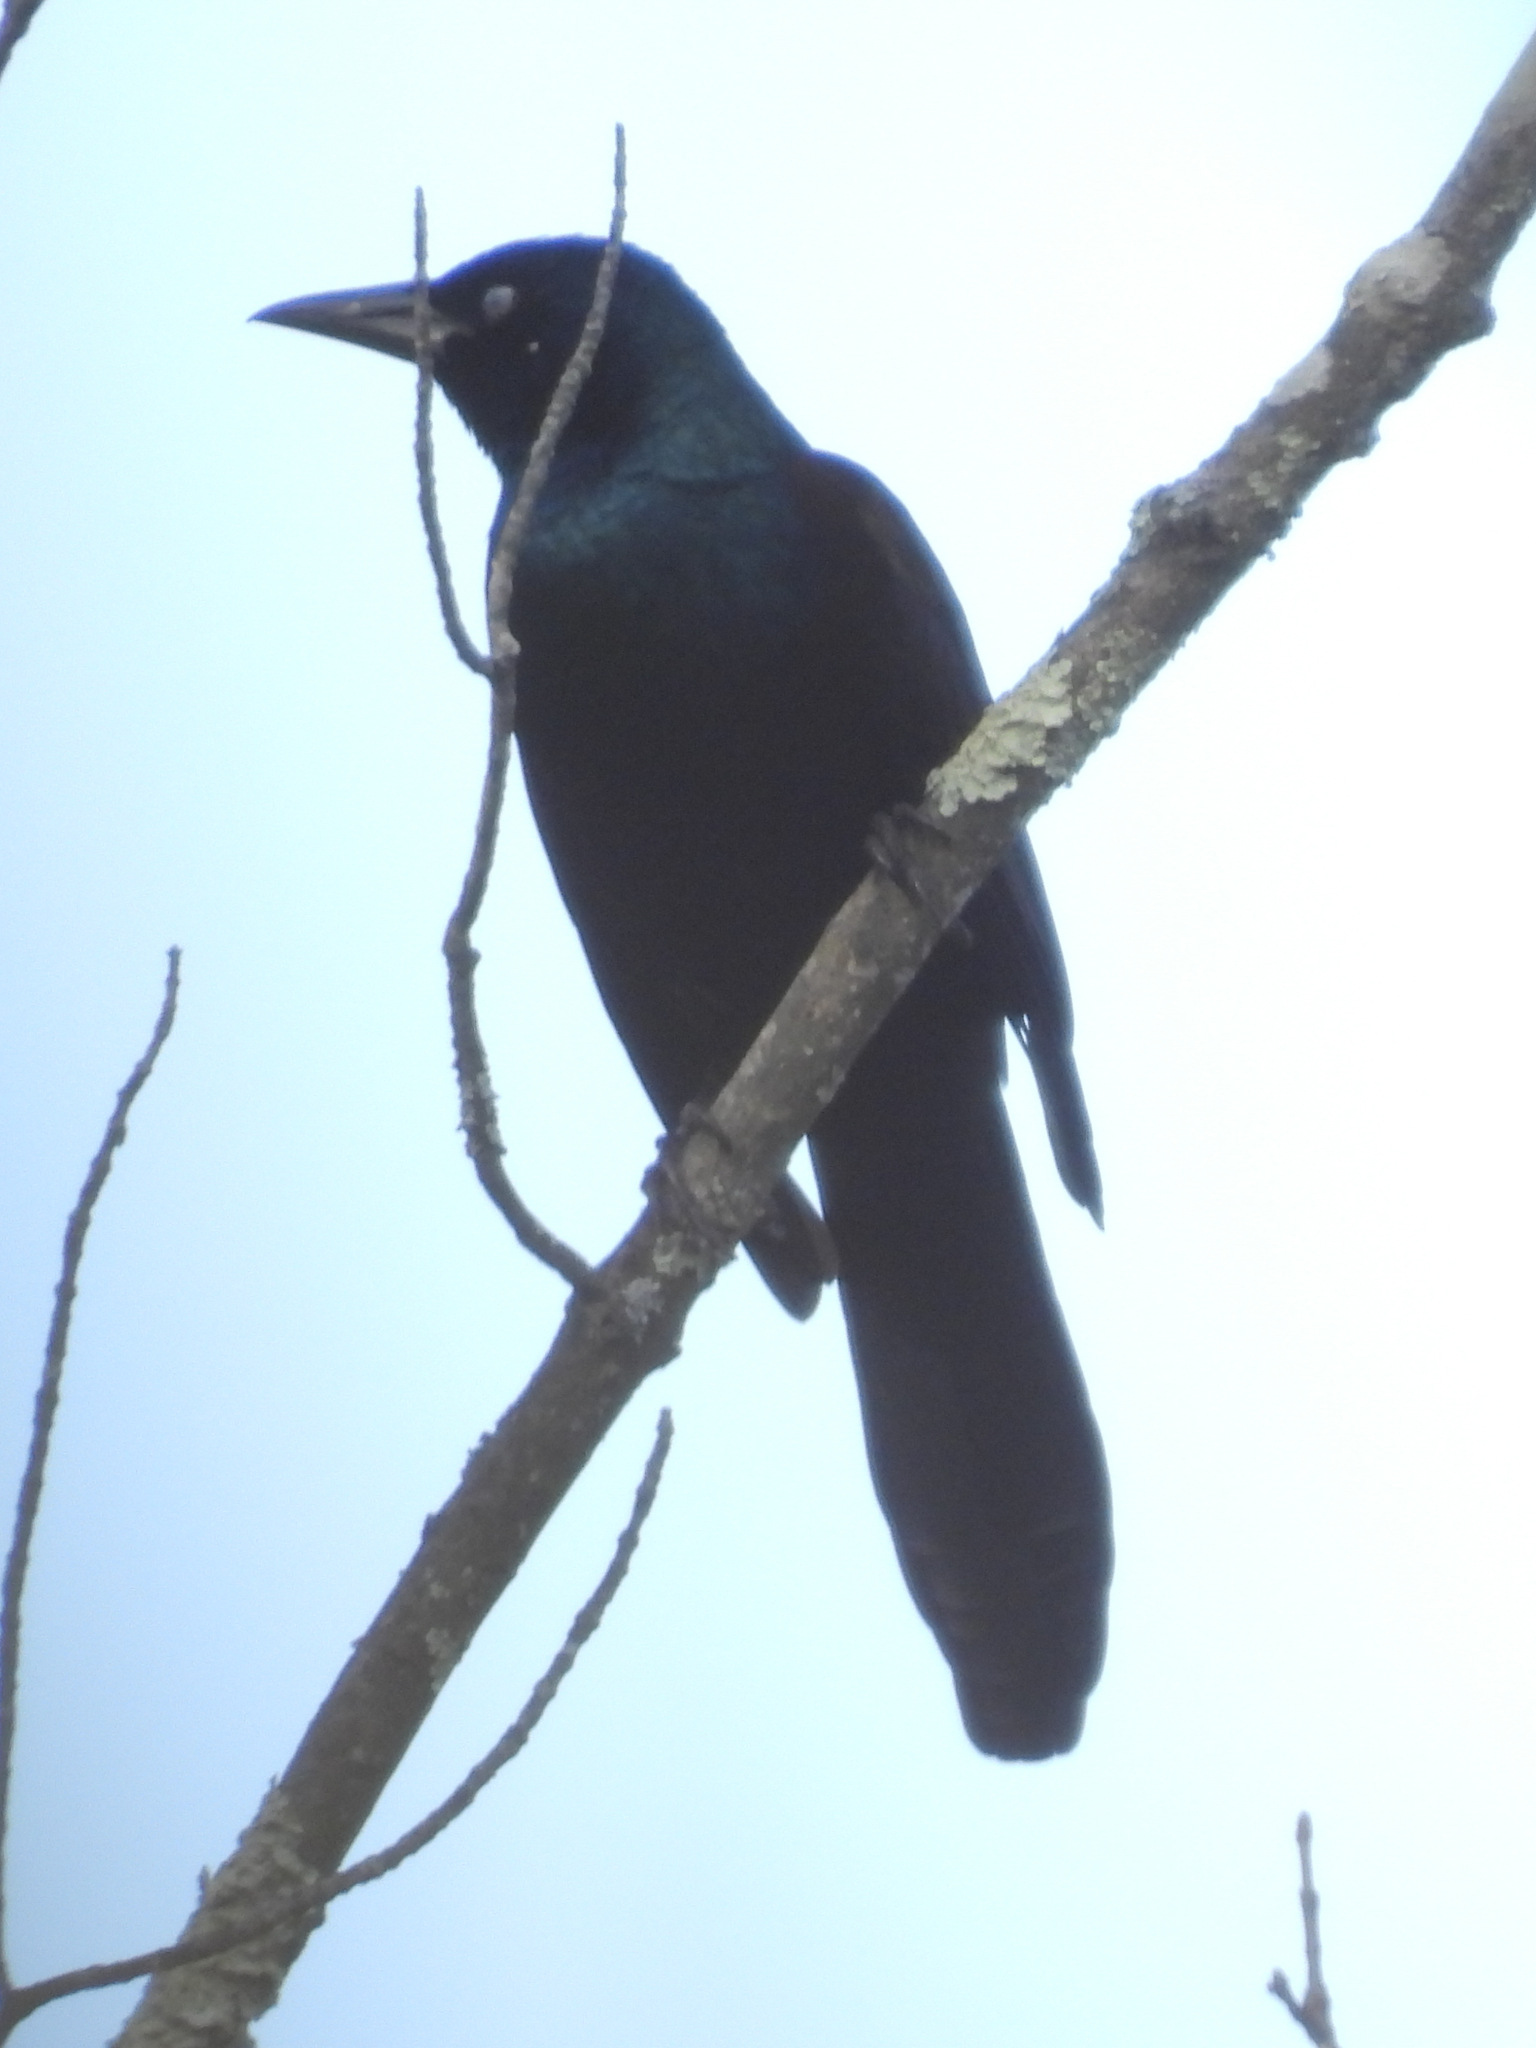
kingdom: Animalia
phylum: Chordata
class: Aves
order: Passeriformes
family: Icteridae
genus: Quiscalus
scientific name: Quiscalus quiscula
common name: Common grackle
